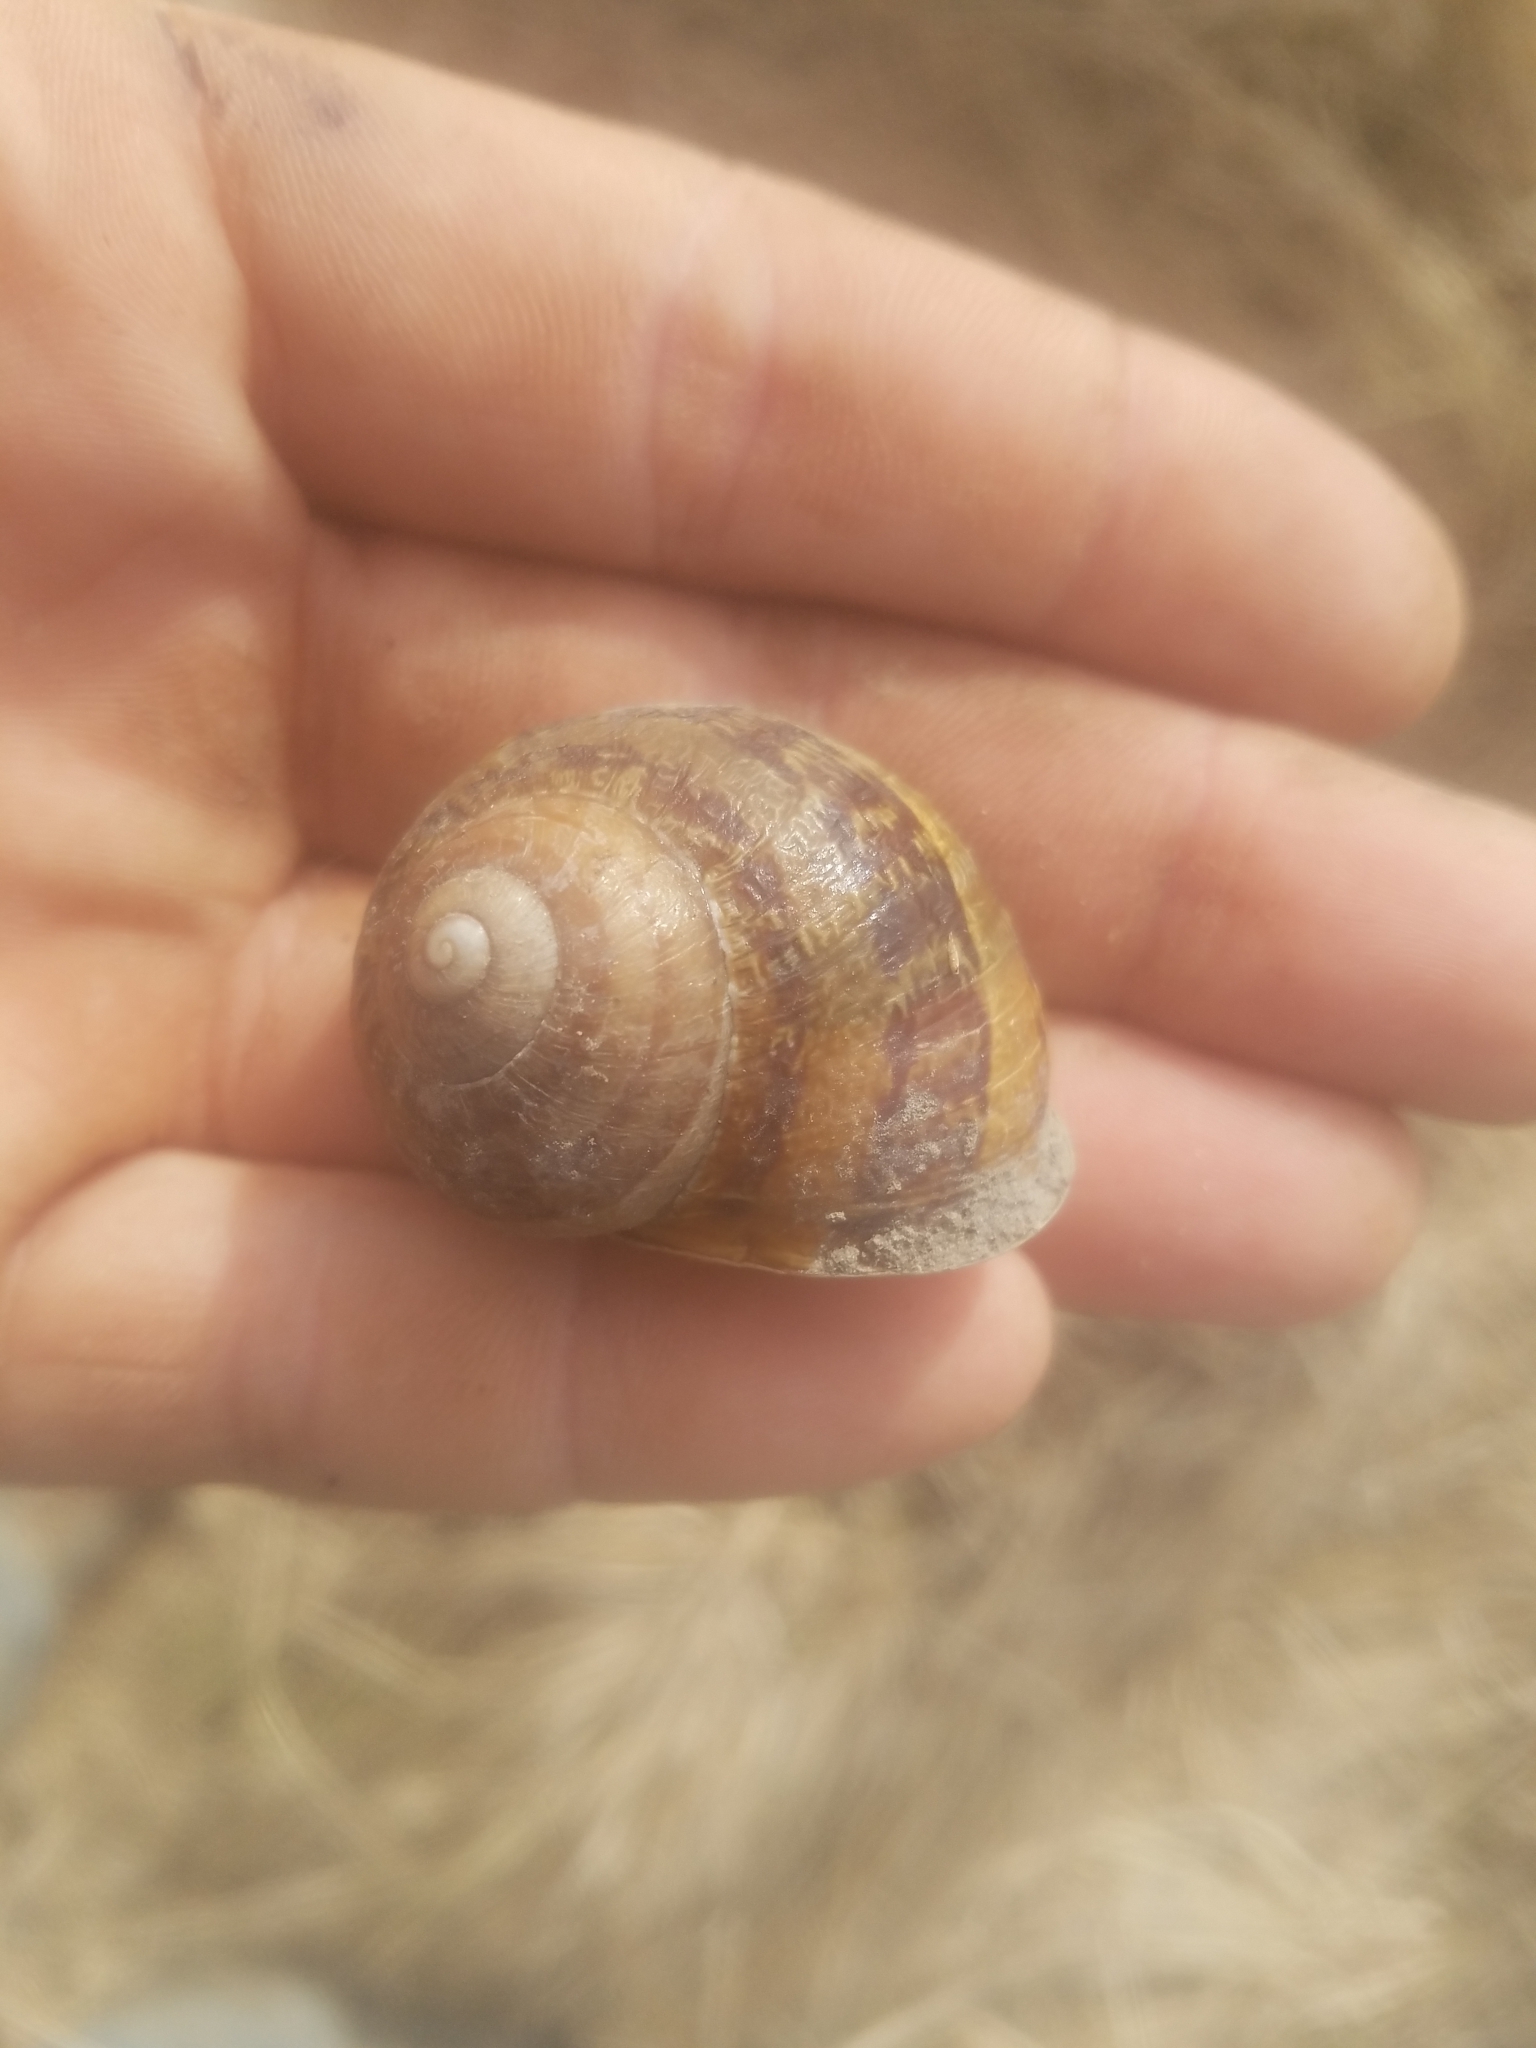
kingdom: Animalia
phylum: Mollusca
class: Gastropoda
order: Stylommatophora
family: Helicidae
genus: Cornu
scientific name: Cornu aspersum
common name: Brown garden snail
